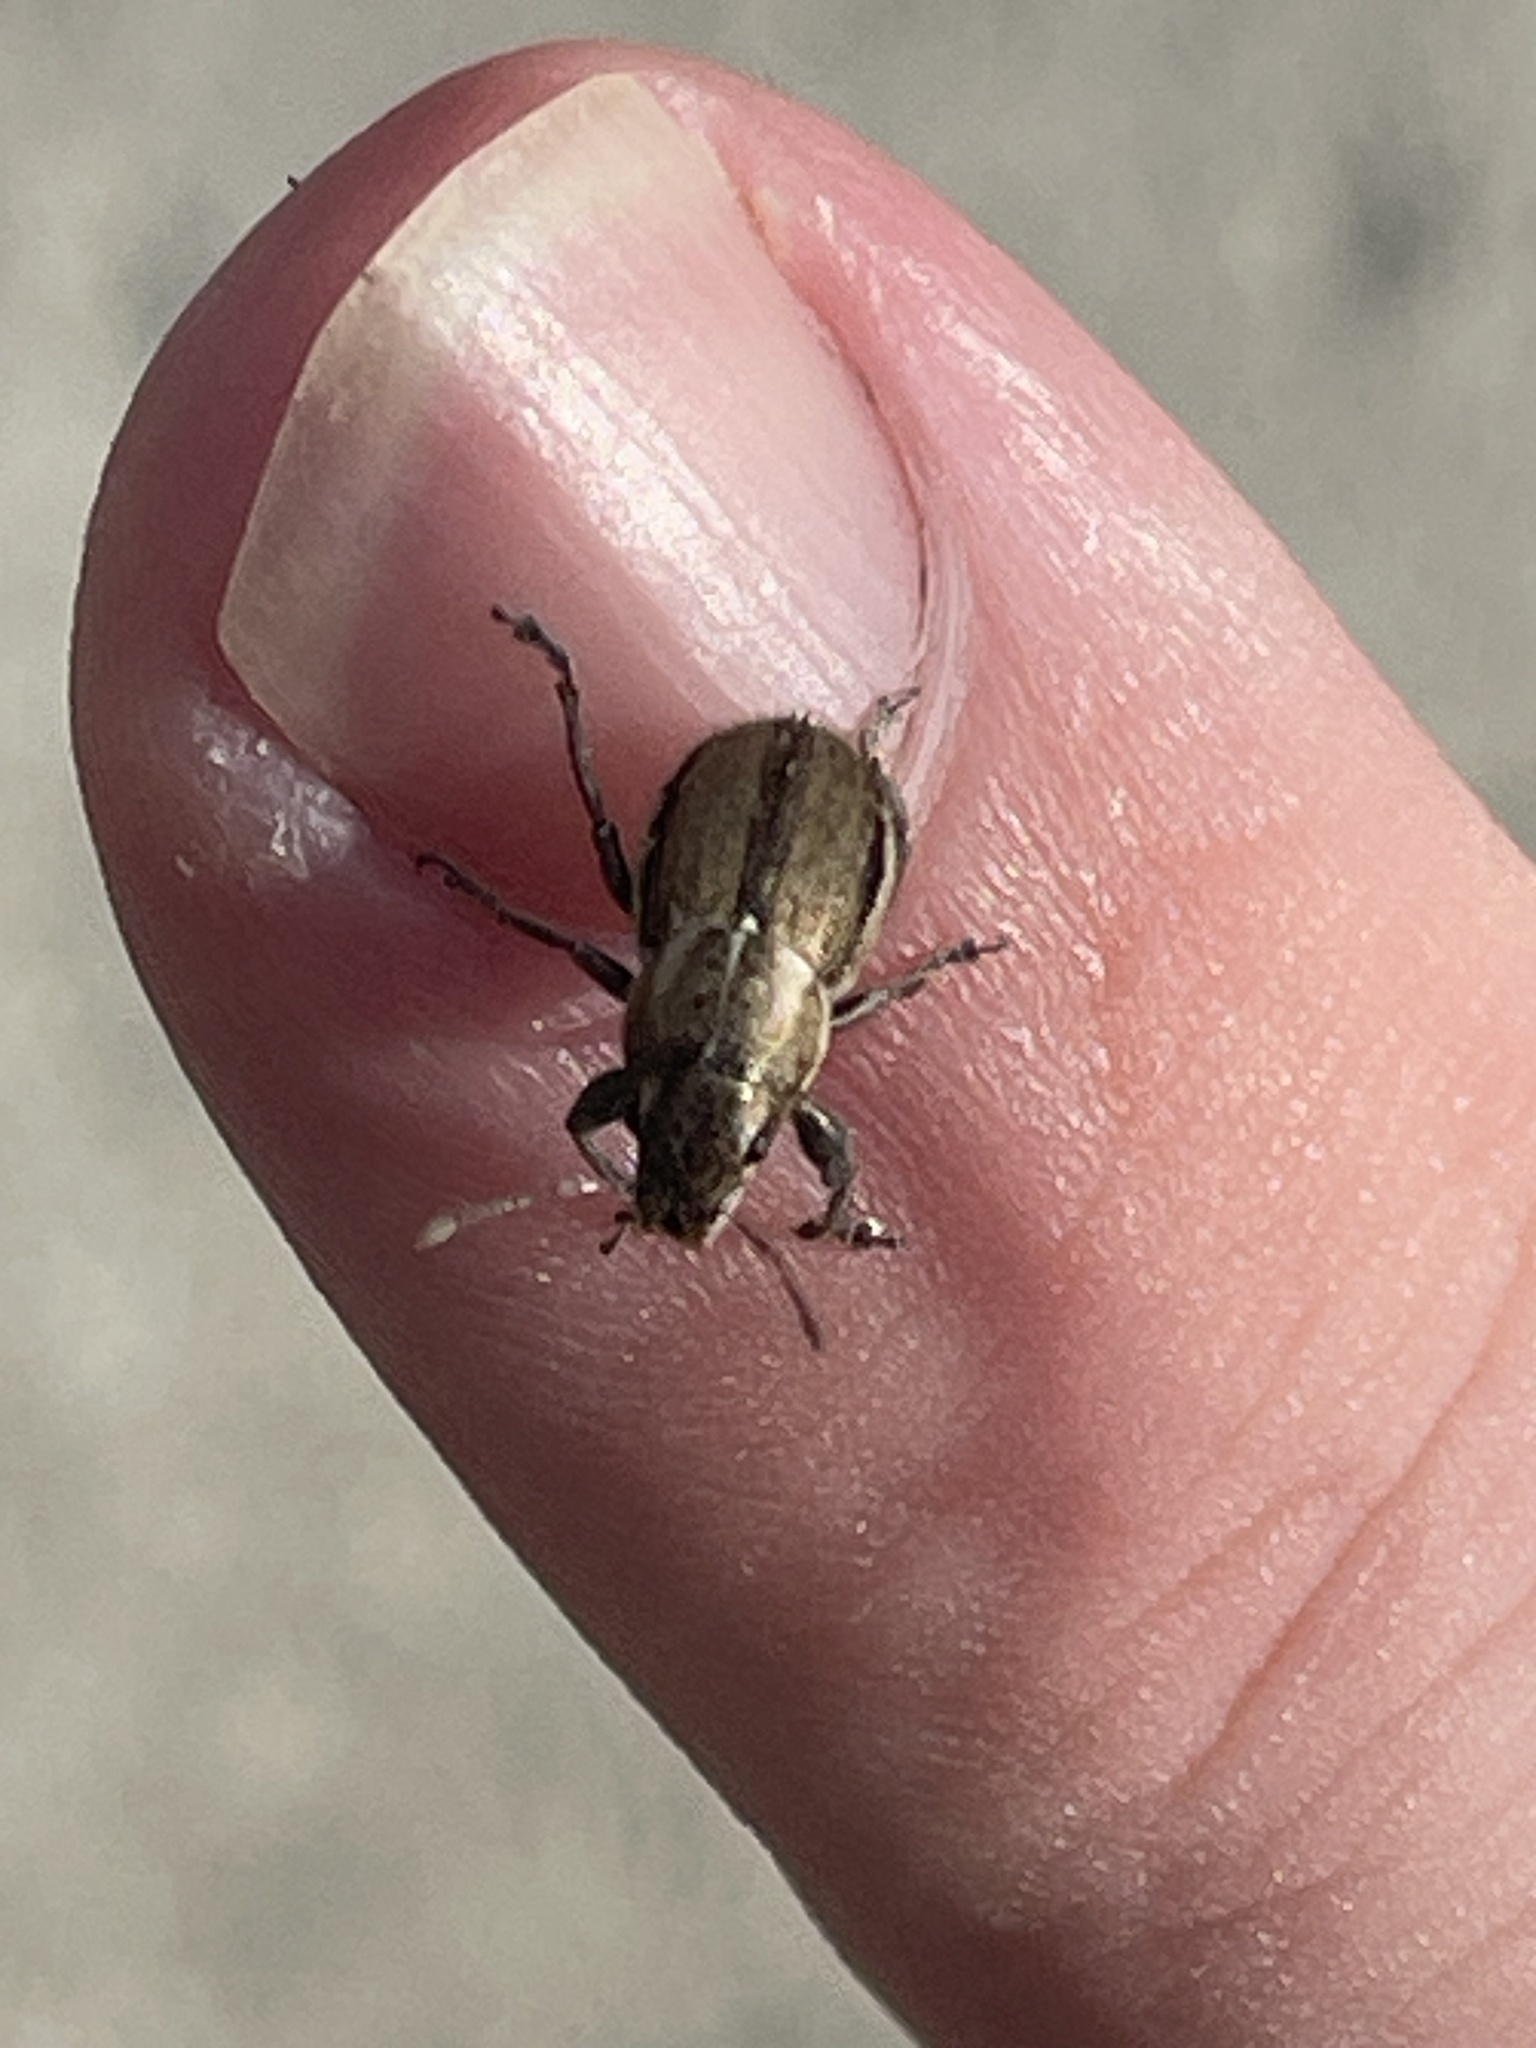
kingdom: Animalia
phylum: Arthropoda
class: Insecta
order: Coleoptera
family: Curculionidae
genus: Naupactus
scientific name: Naupactus peregrinus
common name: Whitefringed beetle
